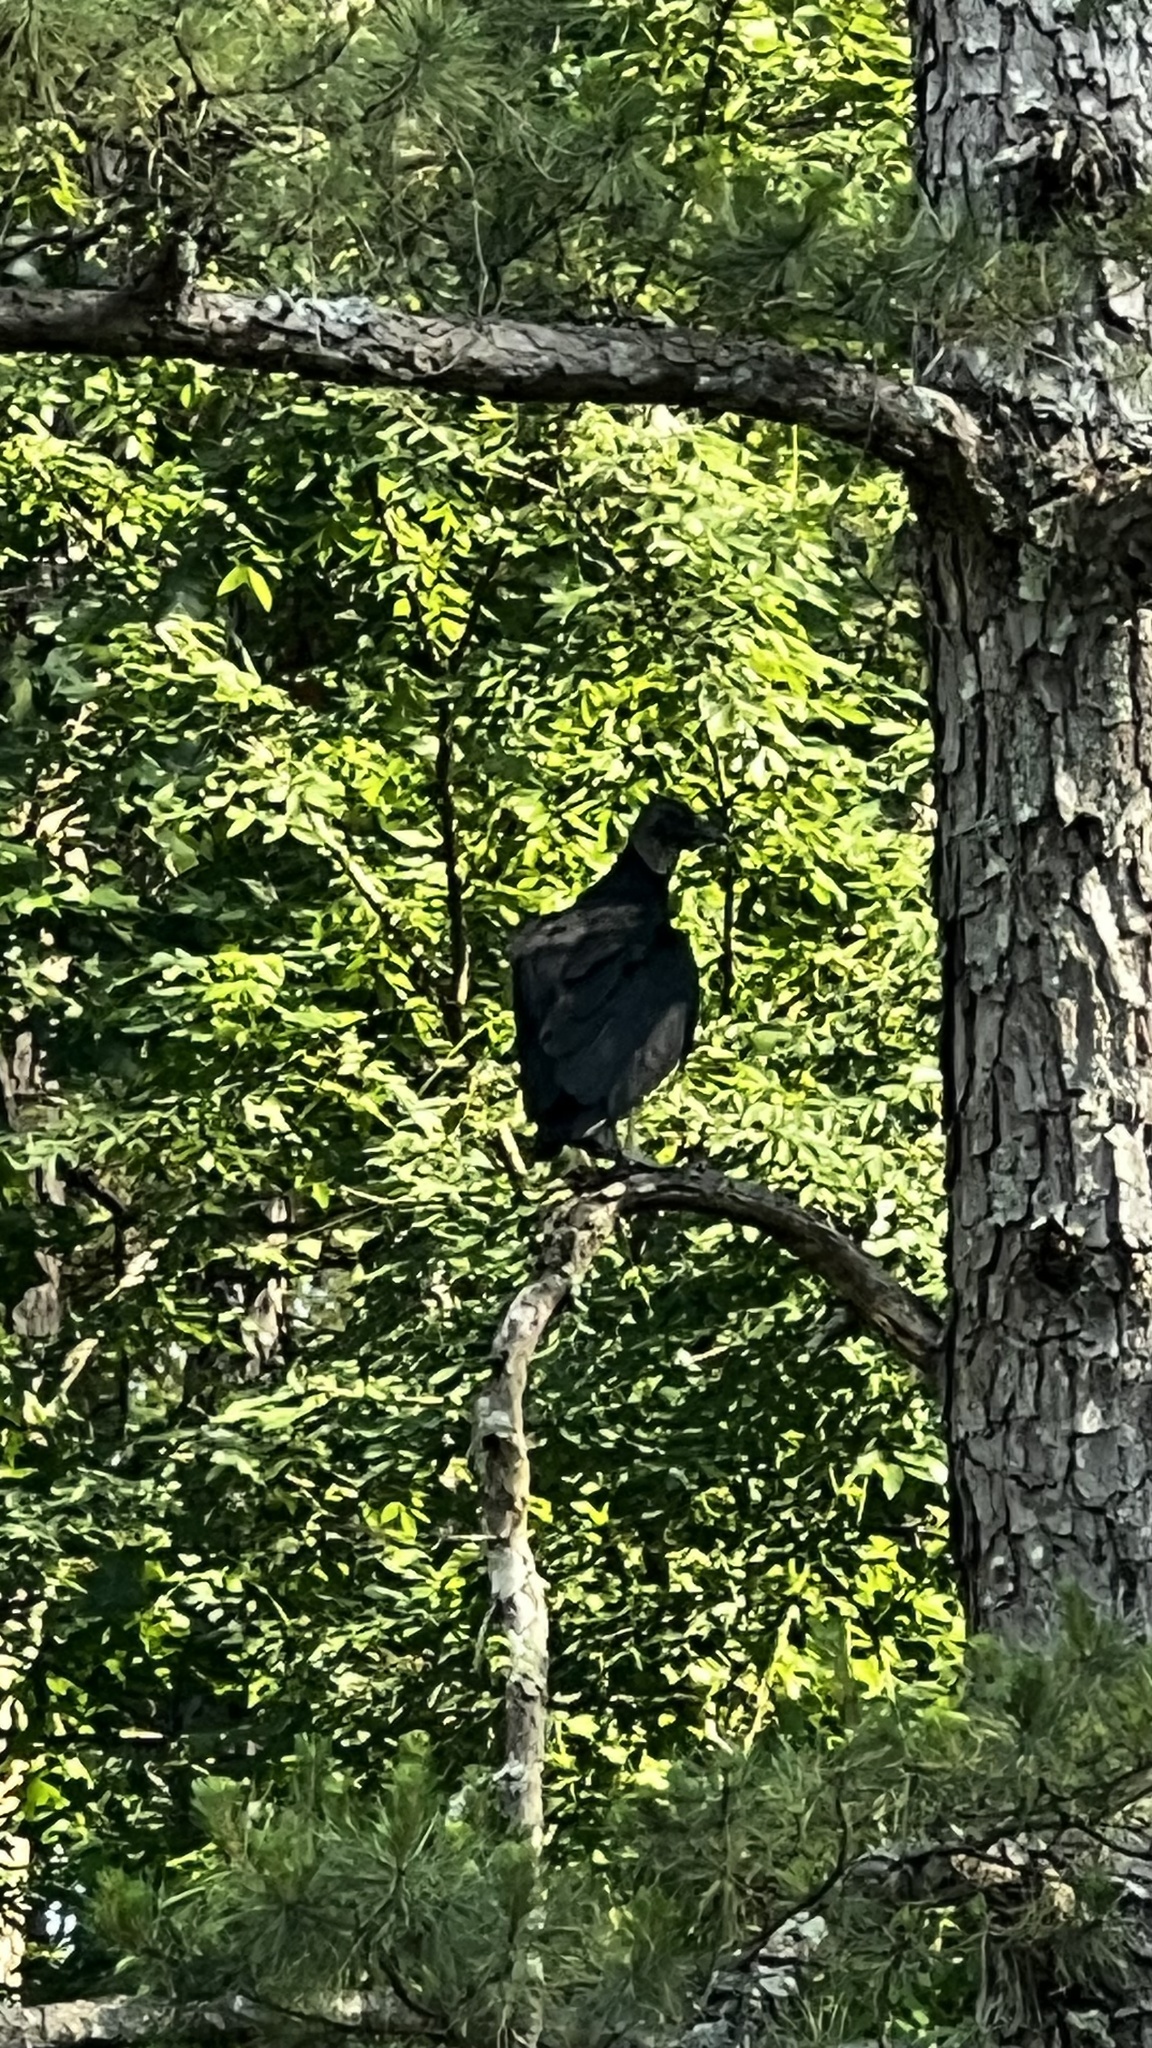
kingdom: Animalia
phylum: Chordata
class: Aves
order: Accipitriformes
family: Cathartidae
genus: Coragyps
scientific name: Coragyps atratus
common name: Black vulture
